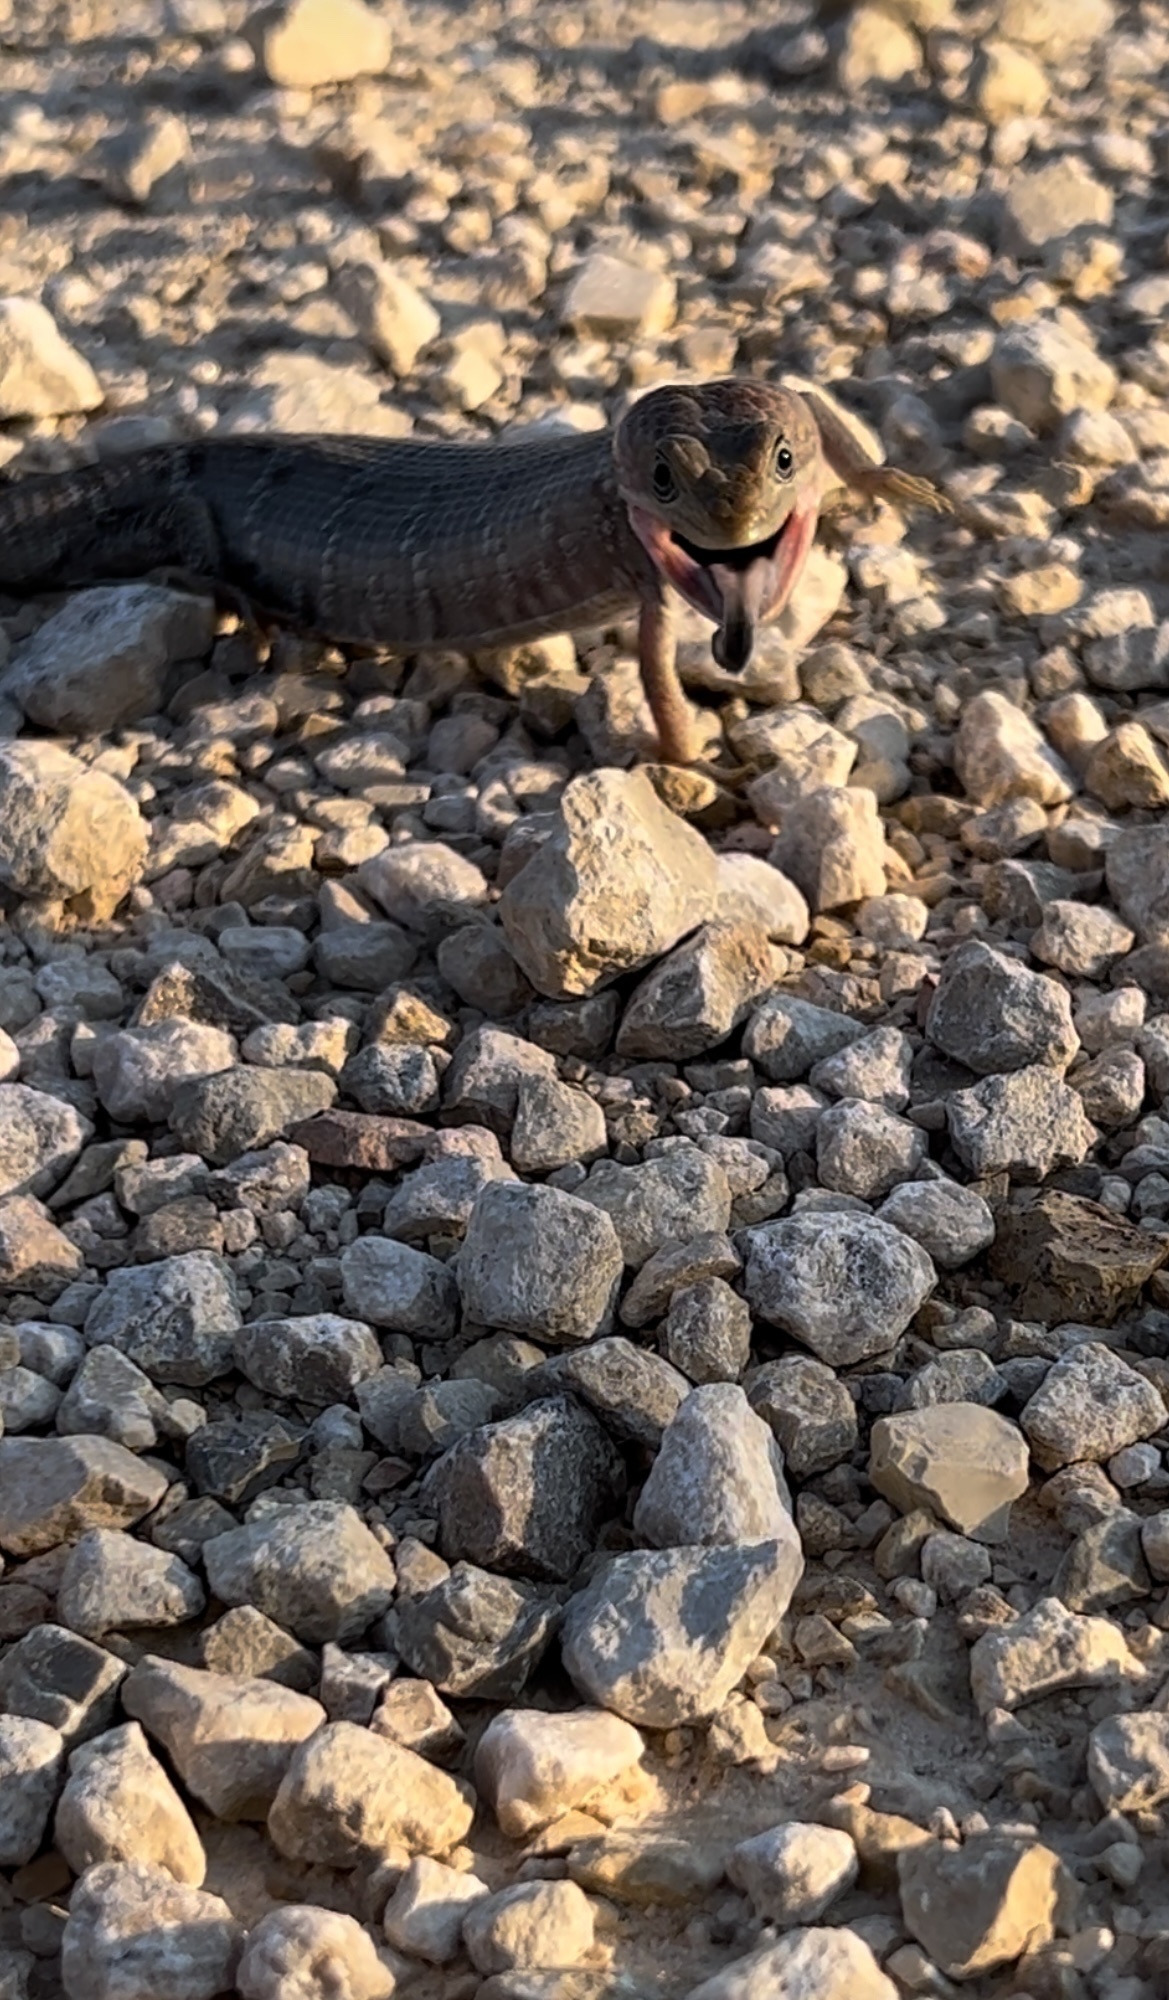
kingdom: Animalia
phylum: Chordata
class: Squamata
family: Anguidae
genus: Gerrhonotus
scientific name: Gerrhonotus infernalis
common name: Texas alligator lizard
